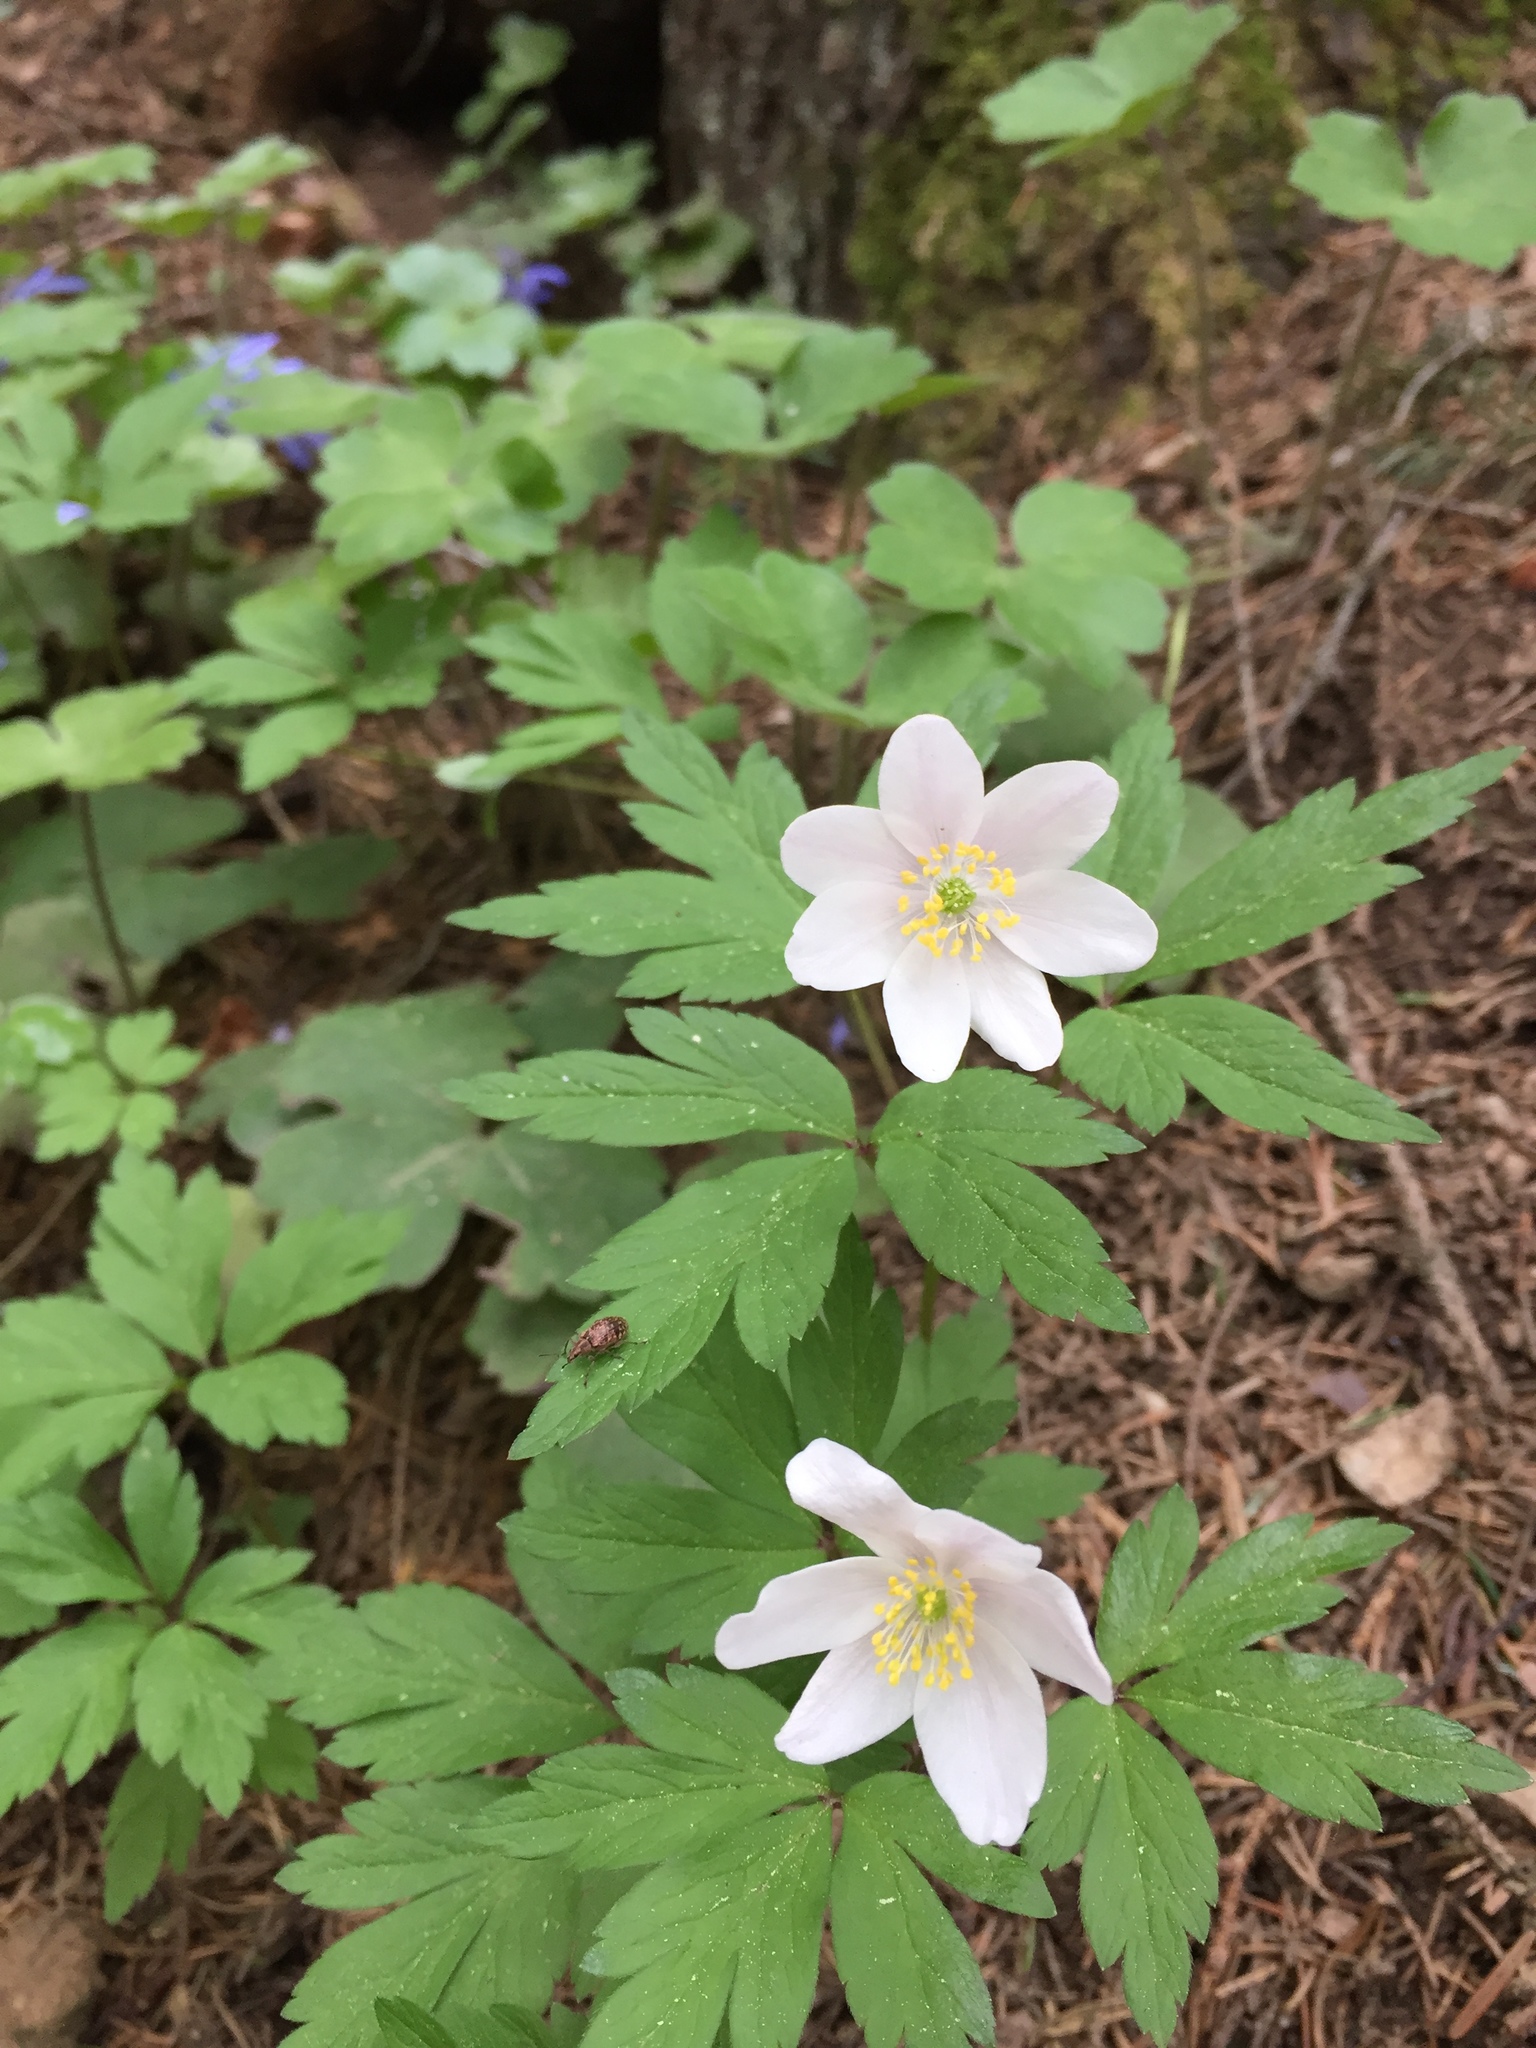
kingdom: Plantae
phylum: Tracheophyta
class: Magnoliopsida
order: Ranunculales
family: Ranunculaceae
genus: Anemone
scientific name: Anemone nemorosa
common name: Wood anemone
